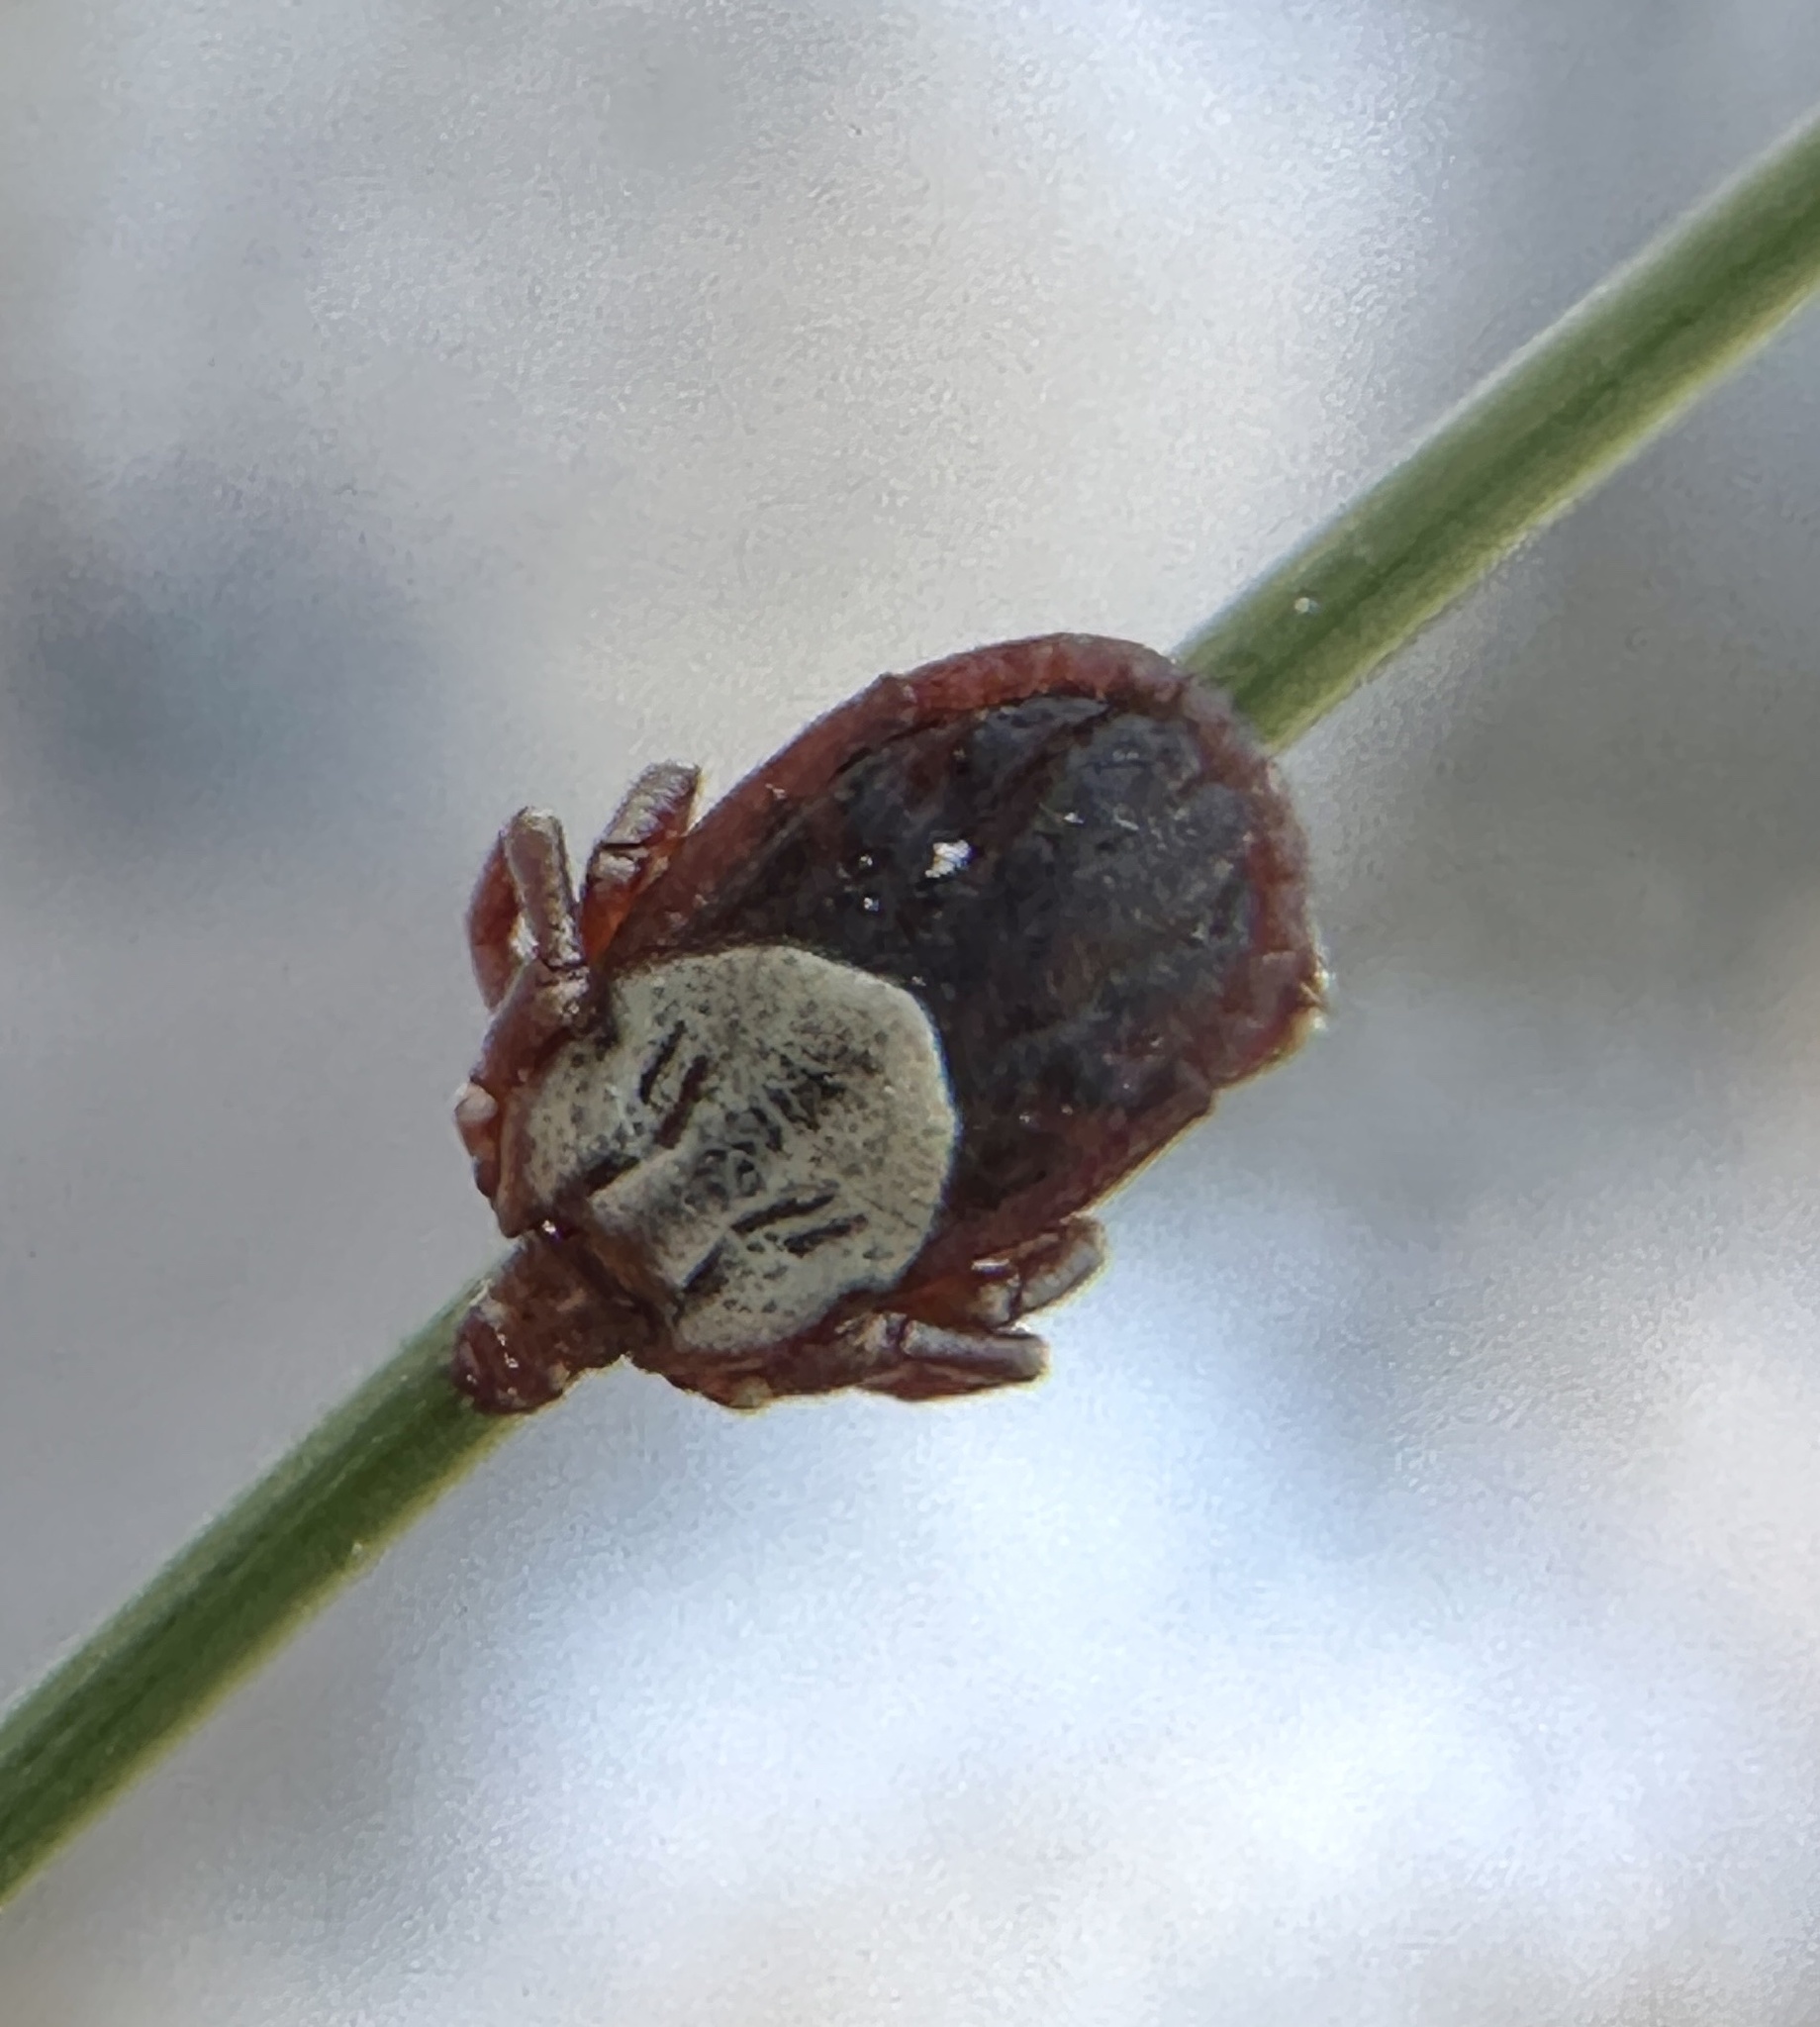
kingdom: Animalia
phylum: Arthropoda
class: Arachnida
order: Ixodida
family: Ixodidae
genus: Dermacentor
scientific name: Dermacentor hunteri
